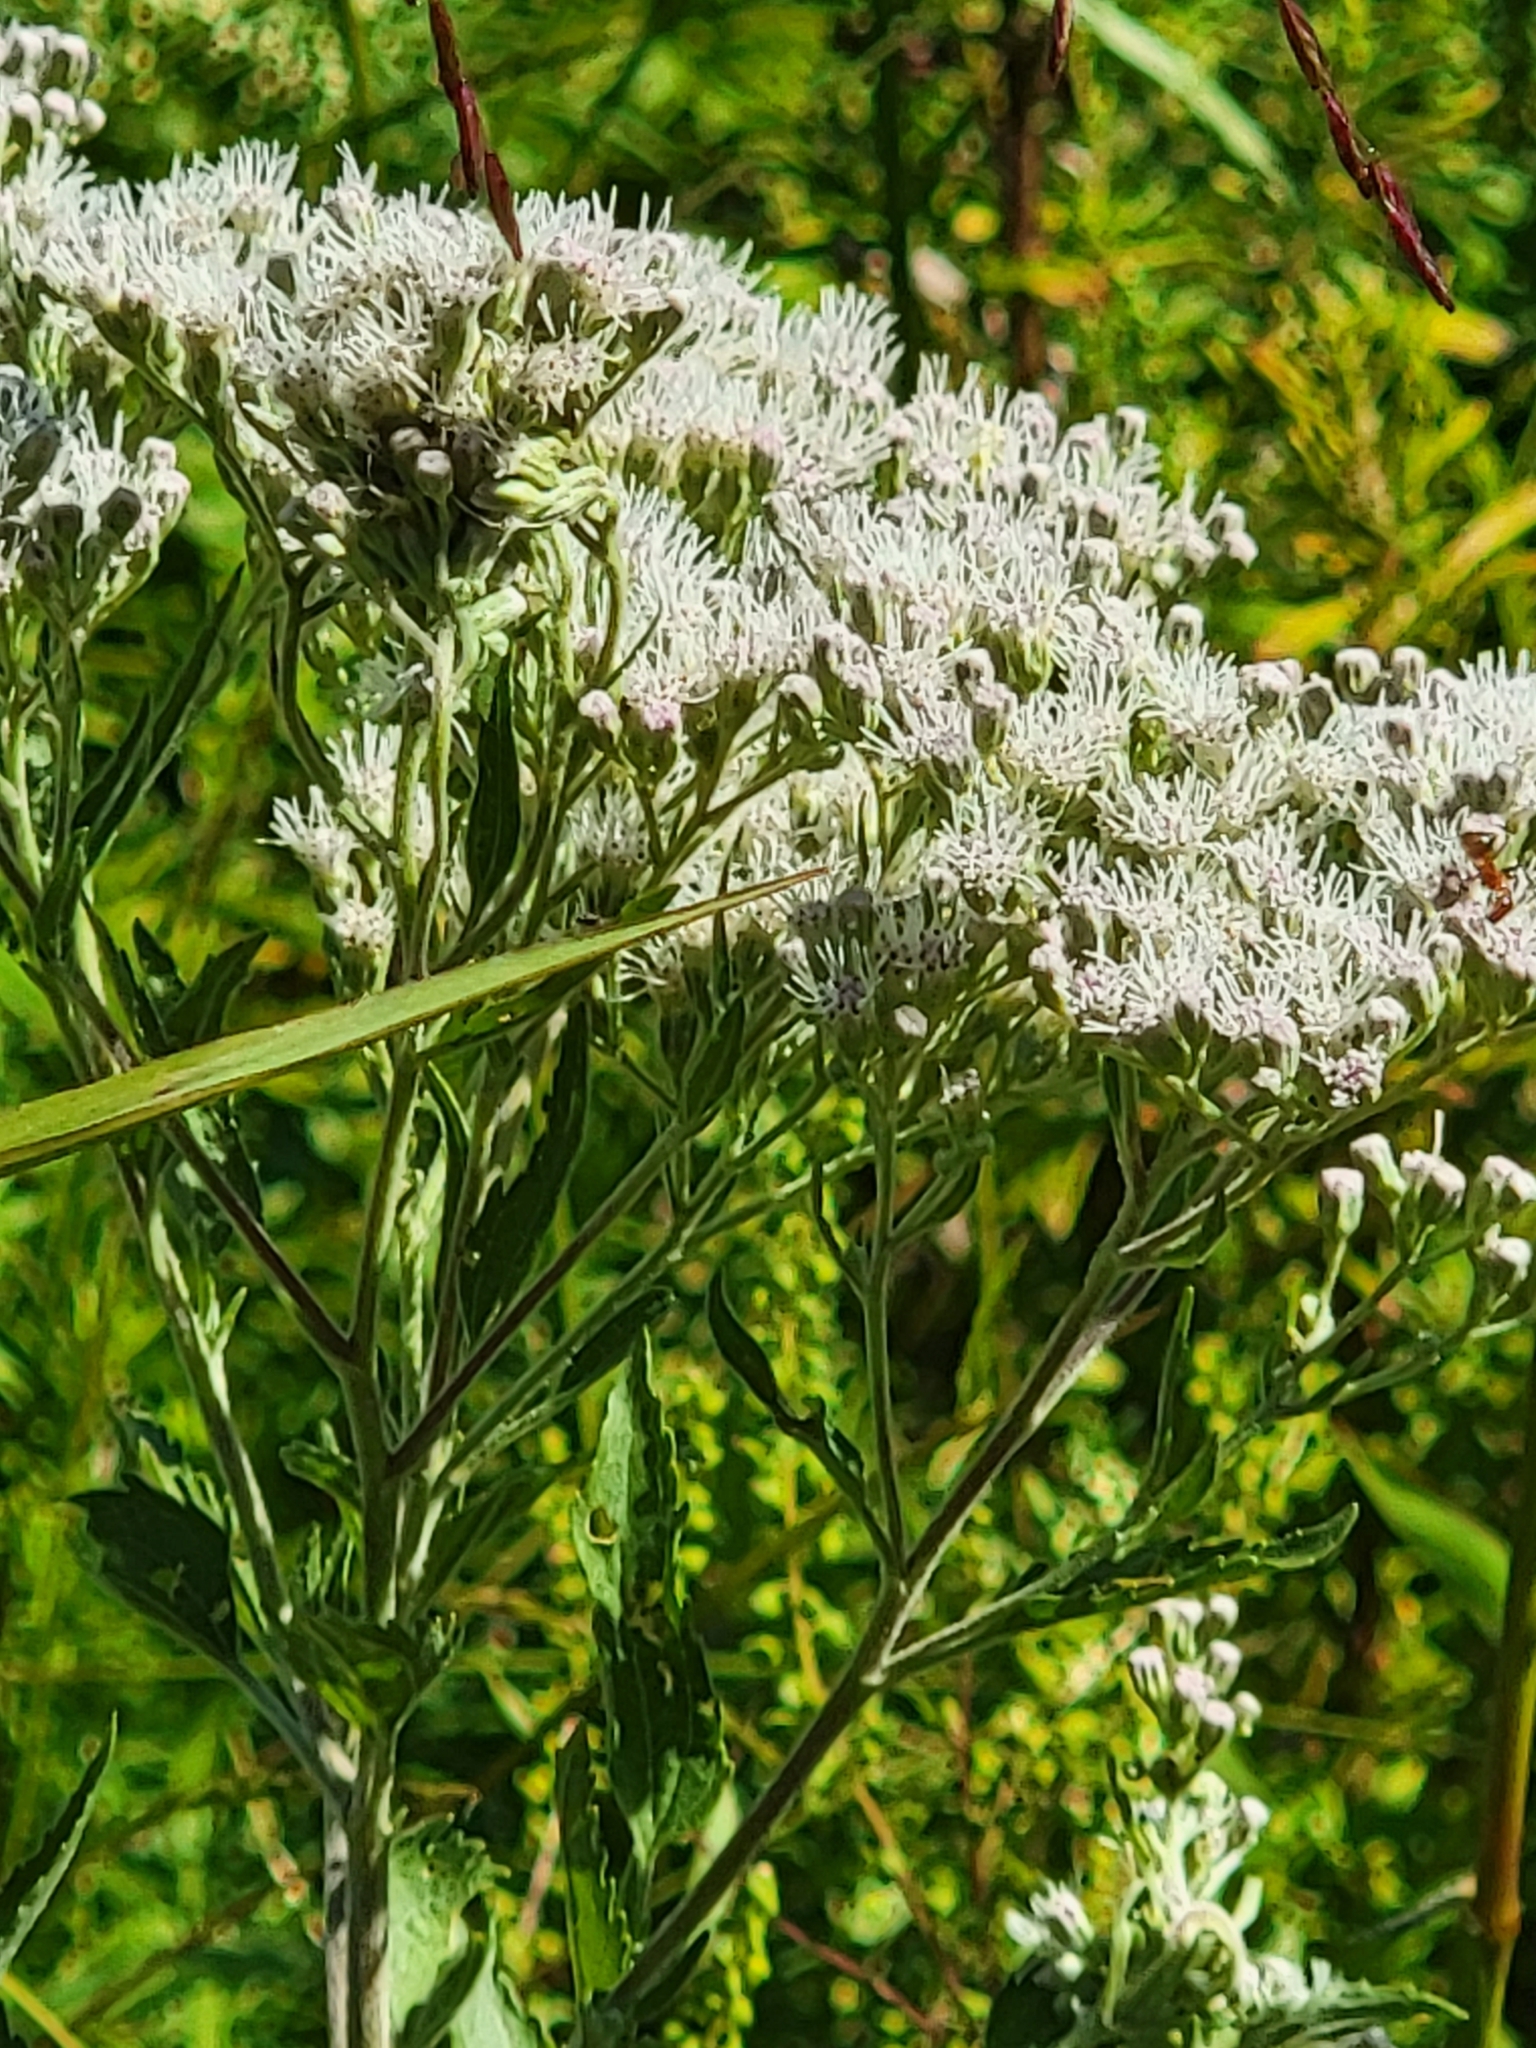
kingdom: Plantae
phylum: Tracheophyta
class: Magnoliopsida
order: Asterales
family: Asteraceae
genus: Eupatorium
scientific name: Eupatorium serotinum
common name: Late boneset
